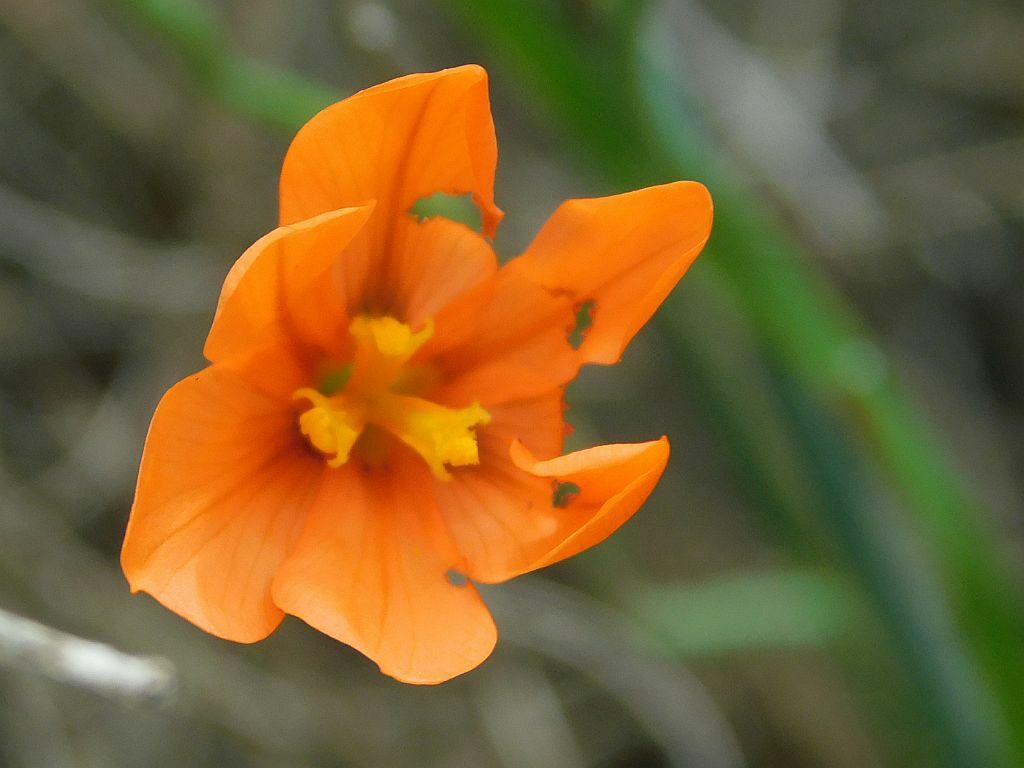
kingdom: Plantae
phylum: Tracheophyta
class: Liliopsida
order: Asparagales
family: Iridaceae
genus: Moraea
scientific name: Moraea ochroleuca
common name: Red tulp
